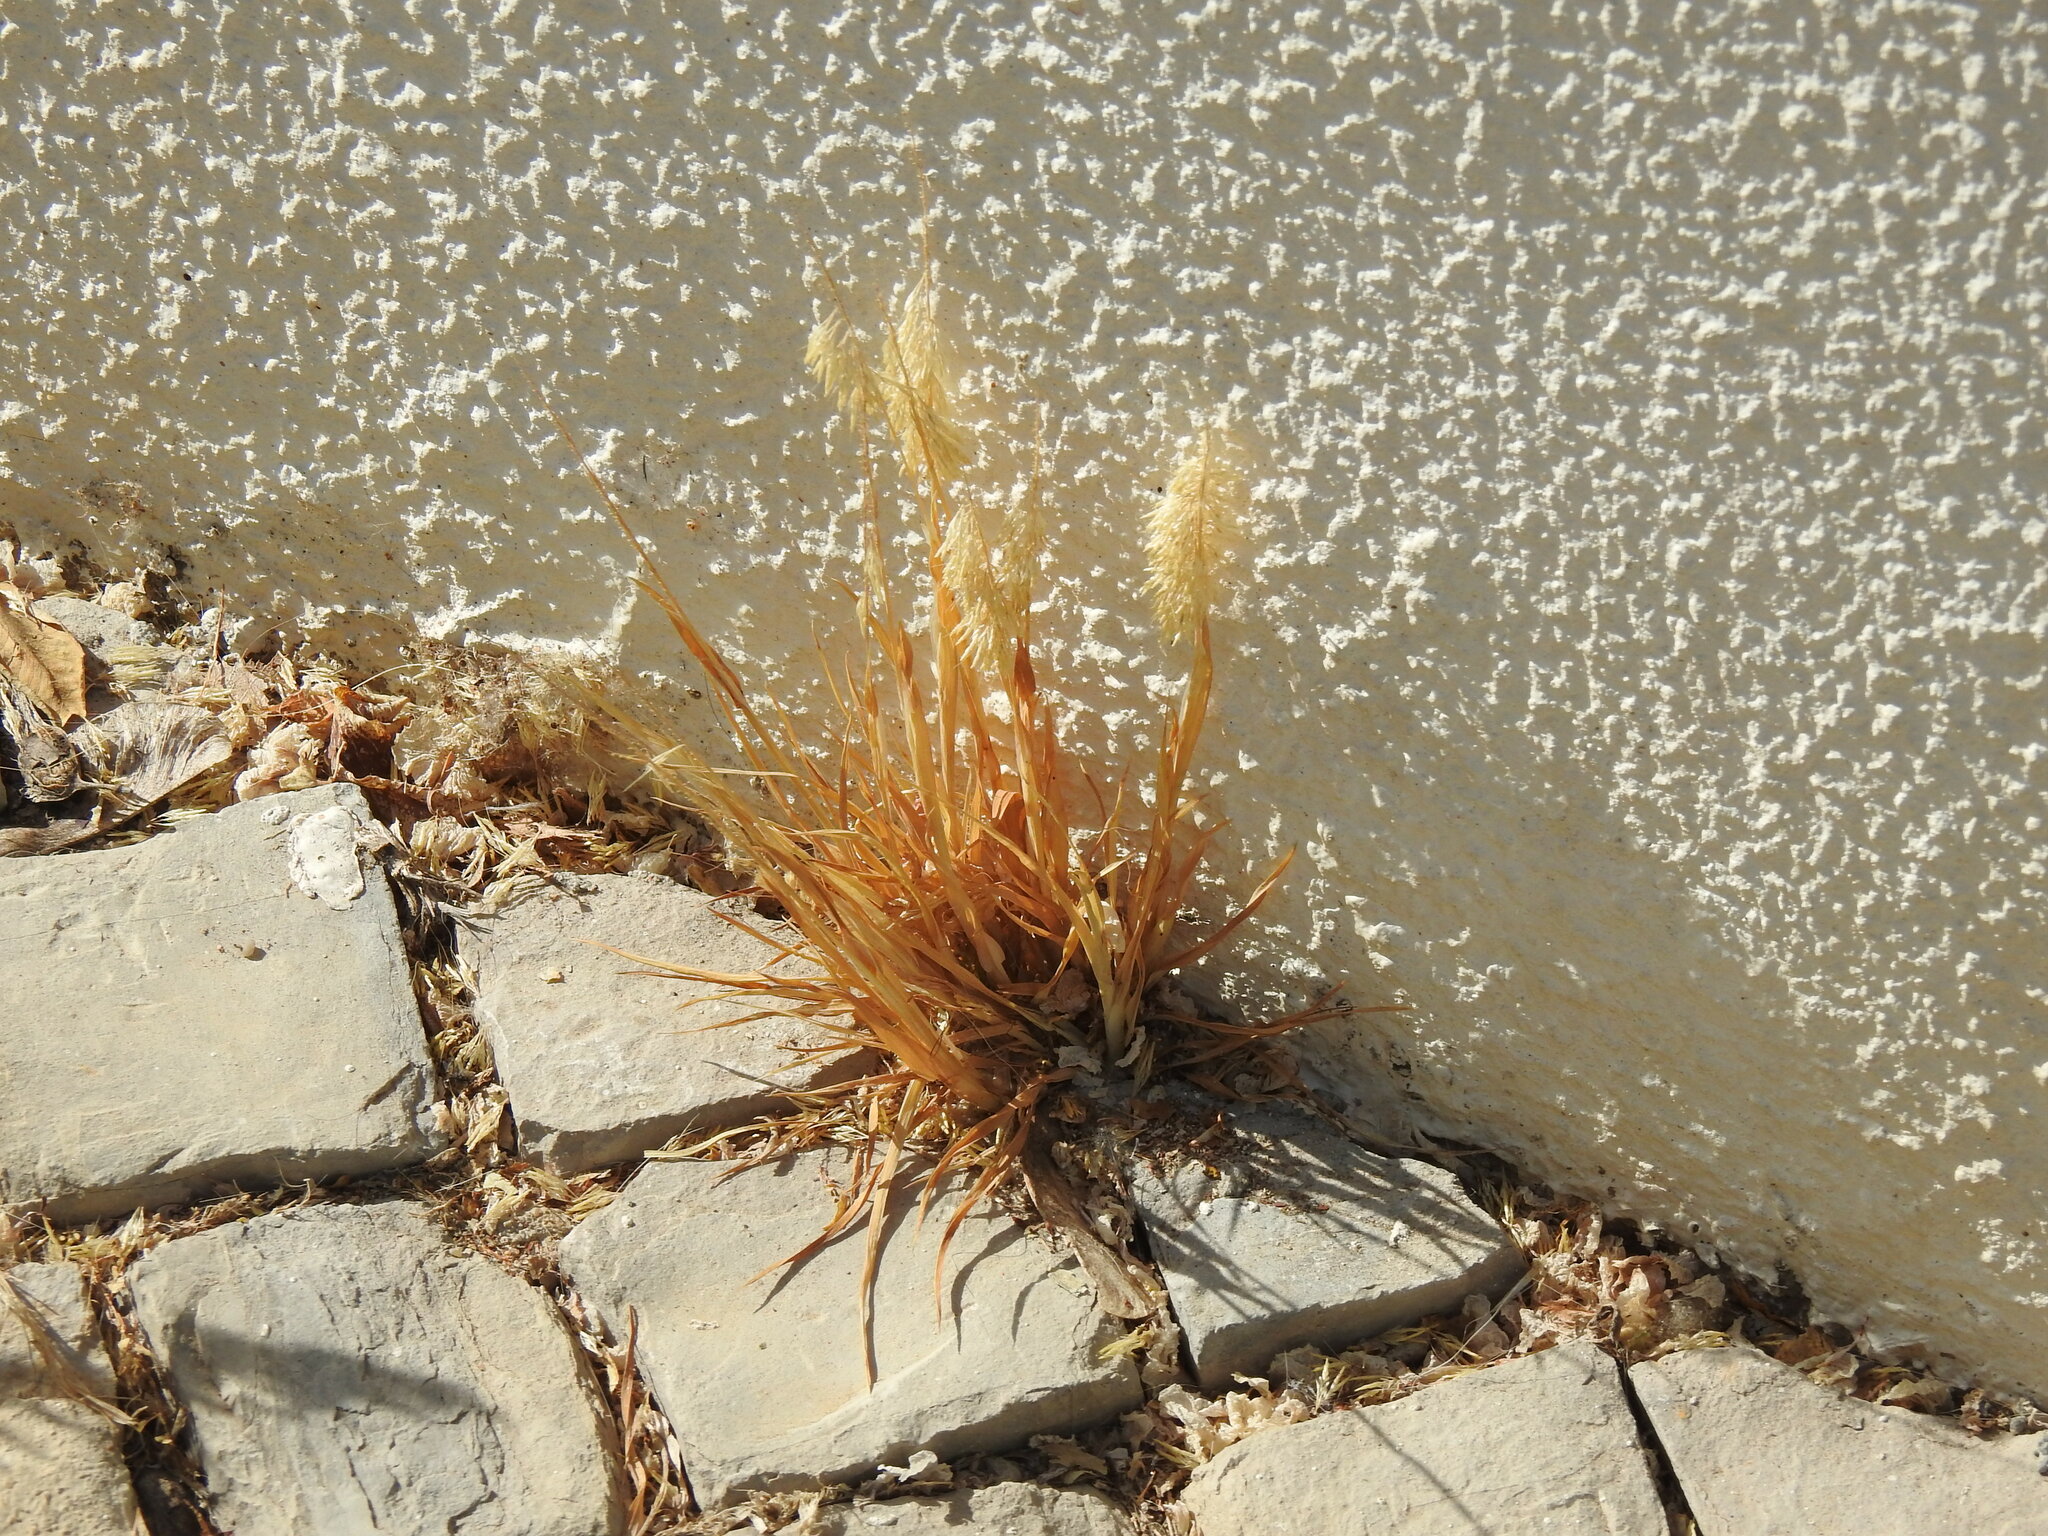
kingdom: Plantae
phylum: Tracheophyta
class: Liliopsida
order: Poales
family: Poaceae
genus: Lamarckia
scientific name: Lamarckia aurea
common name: Golden dog's-tail
